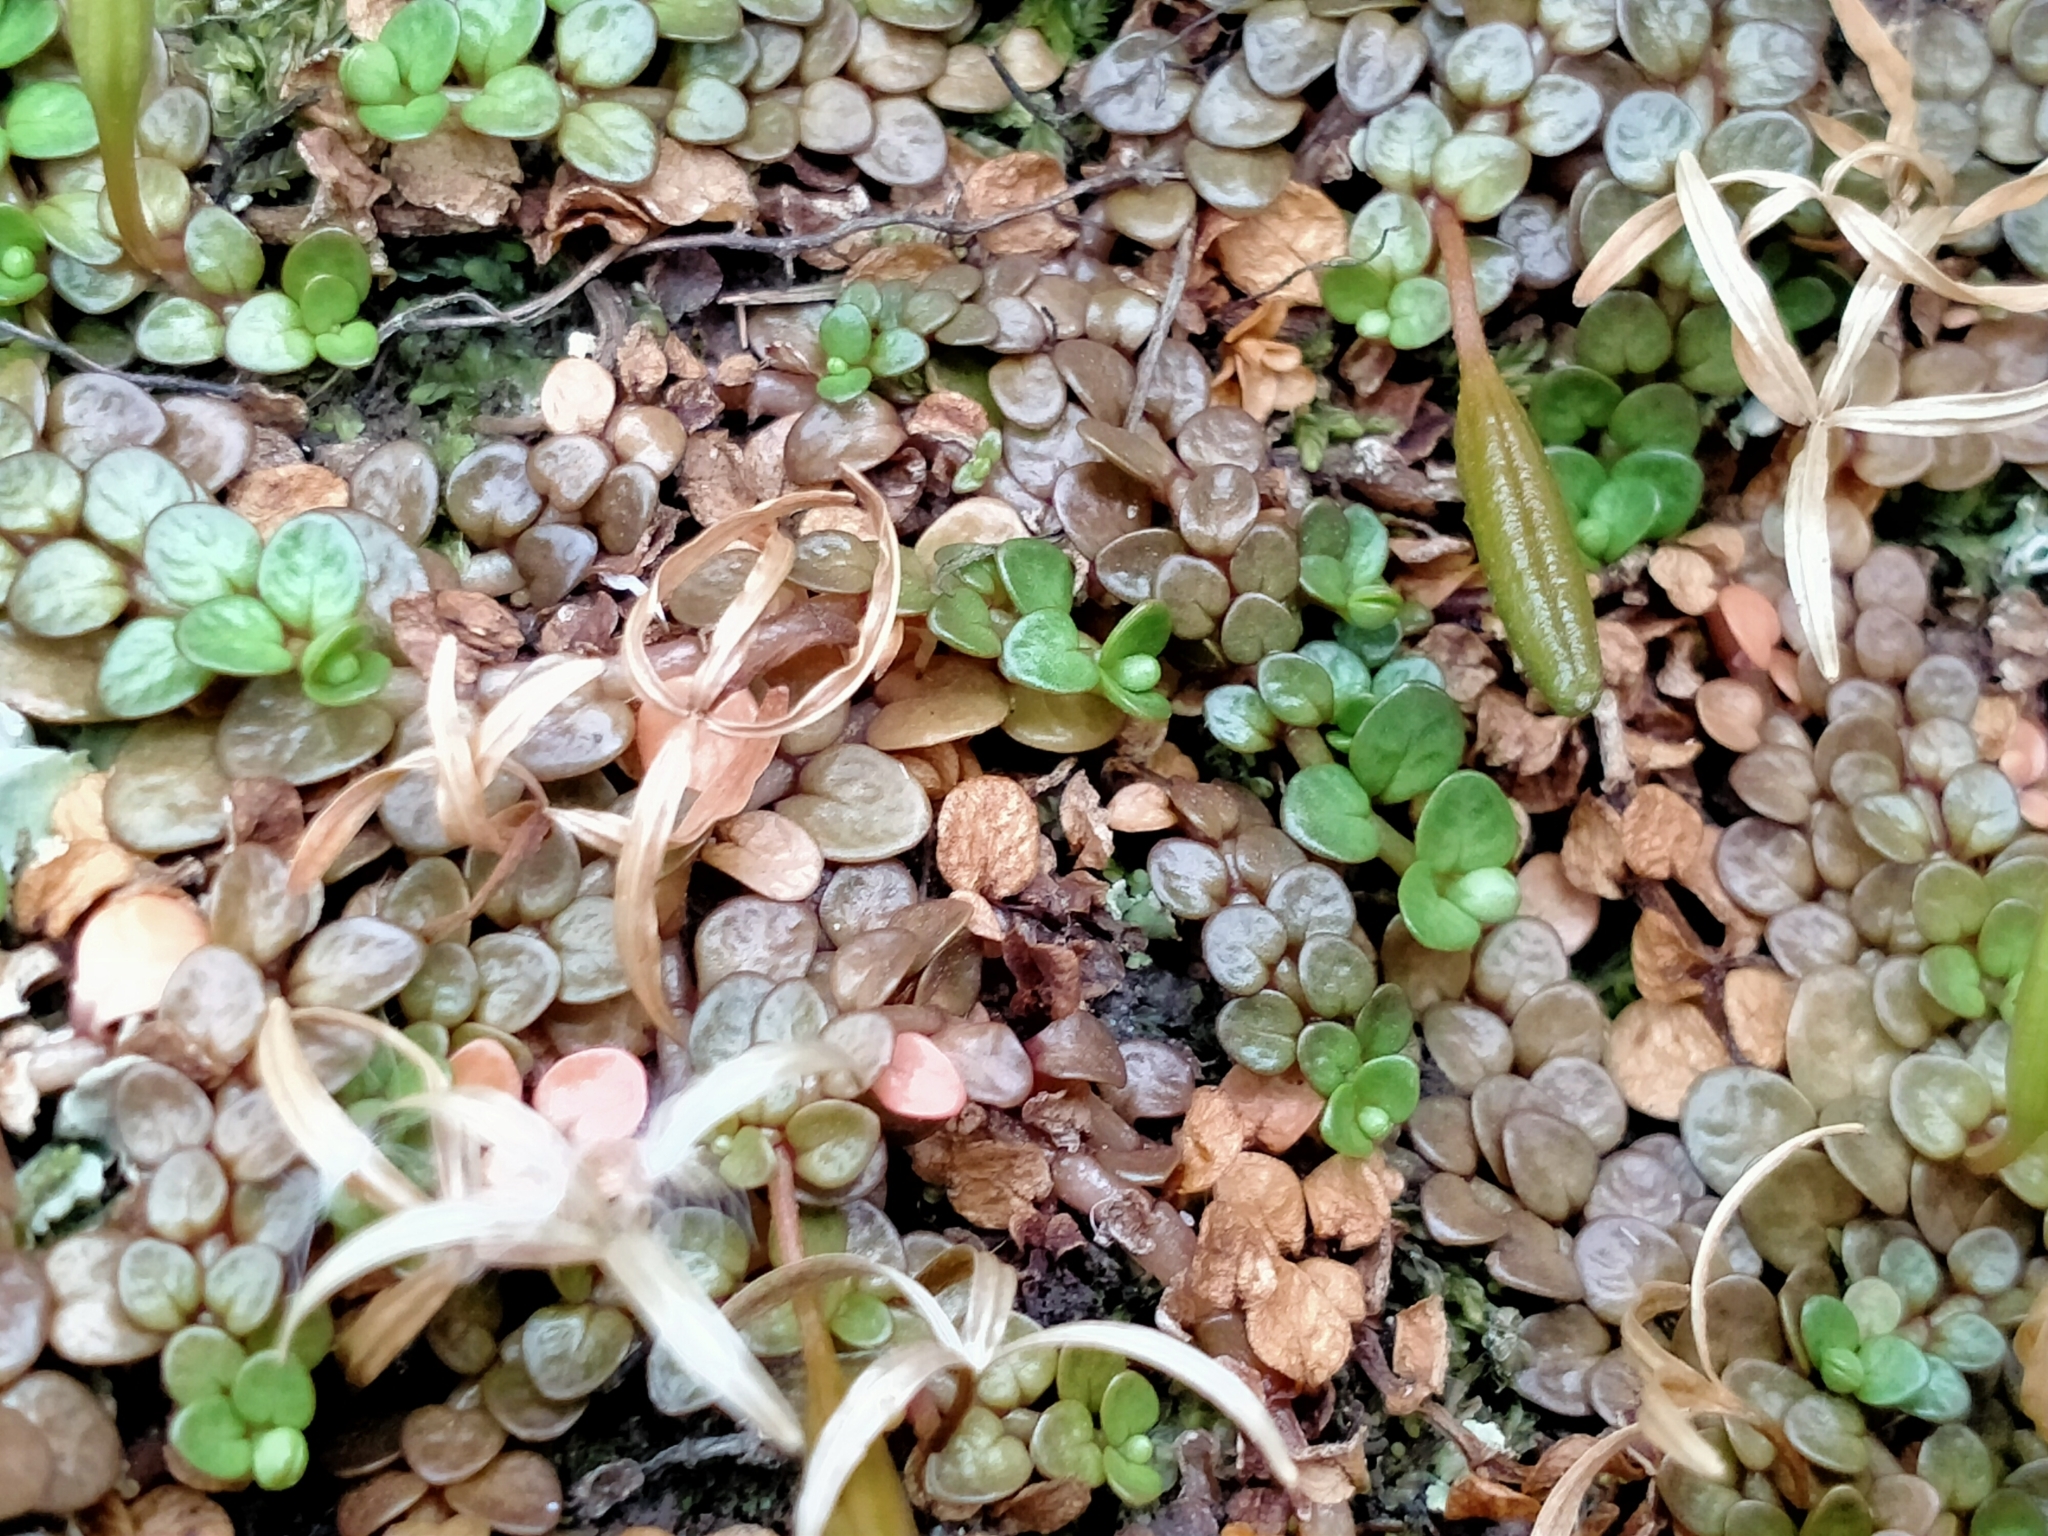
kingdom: Plantae
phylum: Tracheophyta
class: Magnoliopsida
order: Myrtales
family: Onagraceae
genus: Epilobium
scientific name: Epilobium komarovianum
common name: Bronzy willowherb
